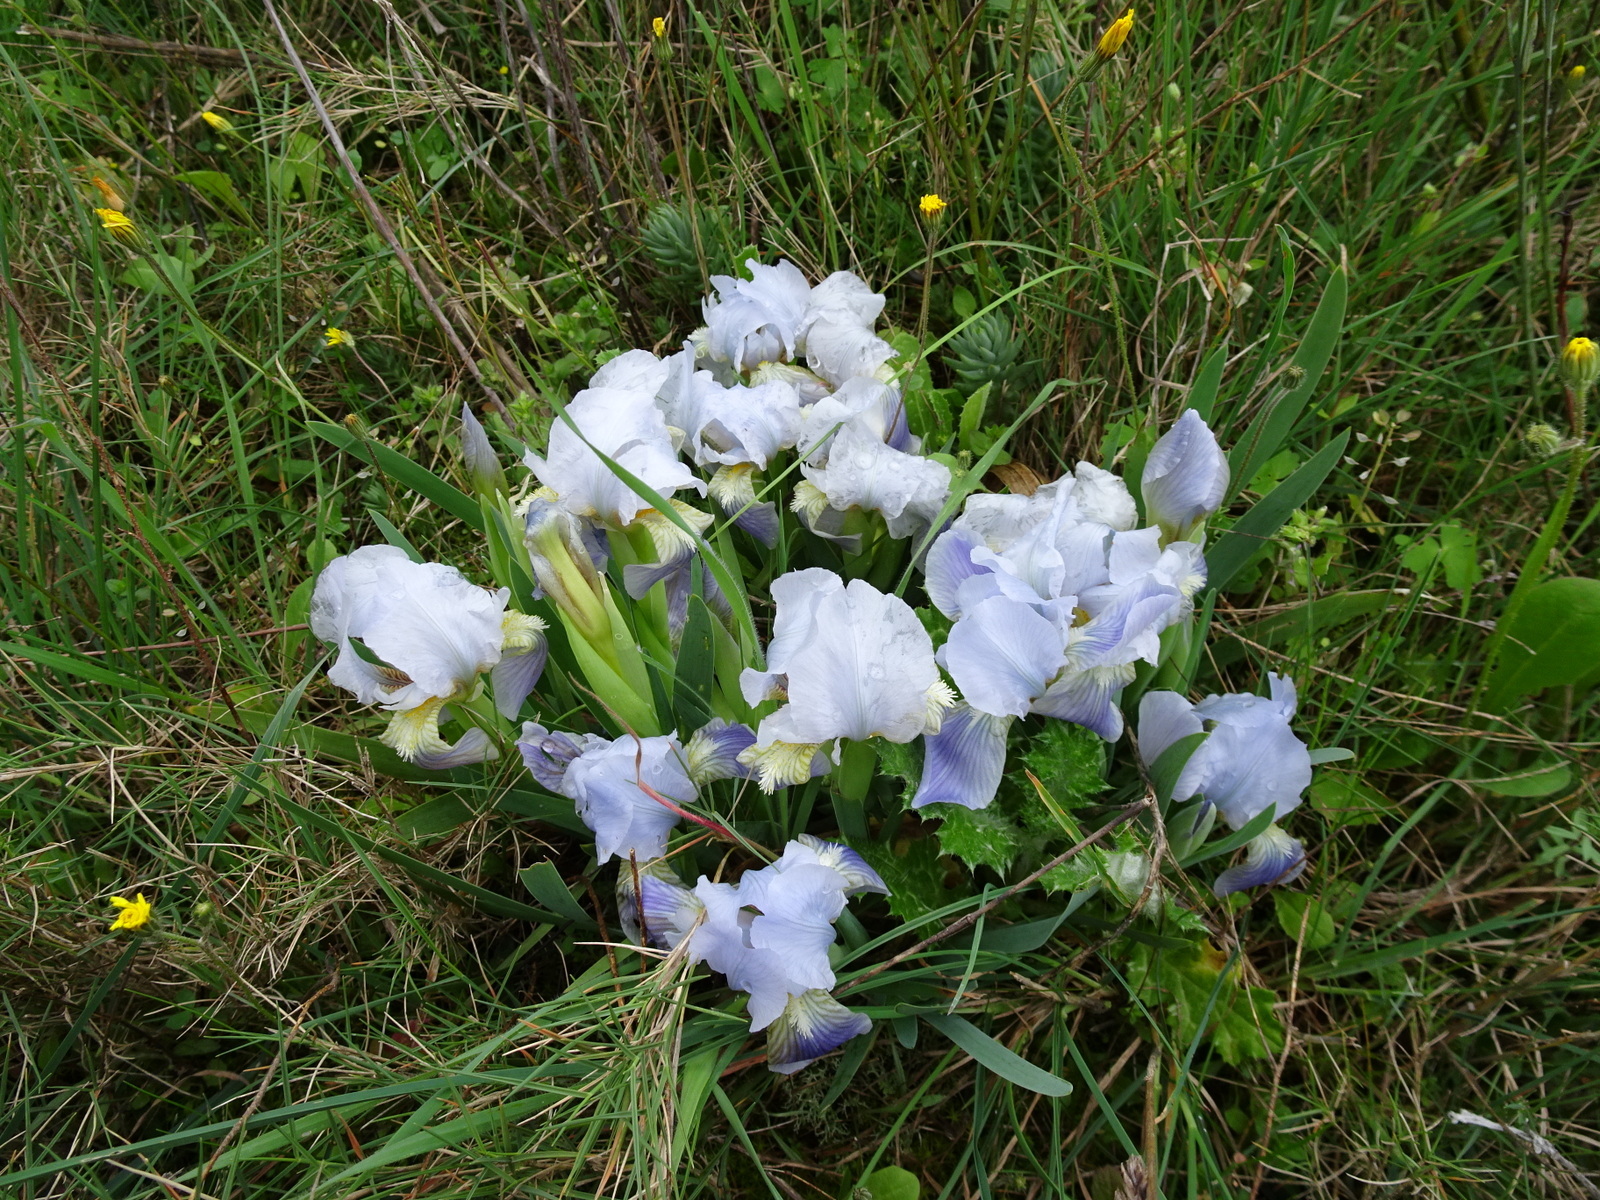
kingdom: Plantae
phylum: Tracheophyta
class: Liliopsida
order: Asparagales
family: Iridaceae
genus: Iris
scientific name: Iris lutescens
